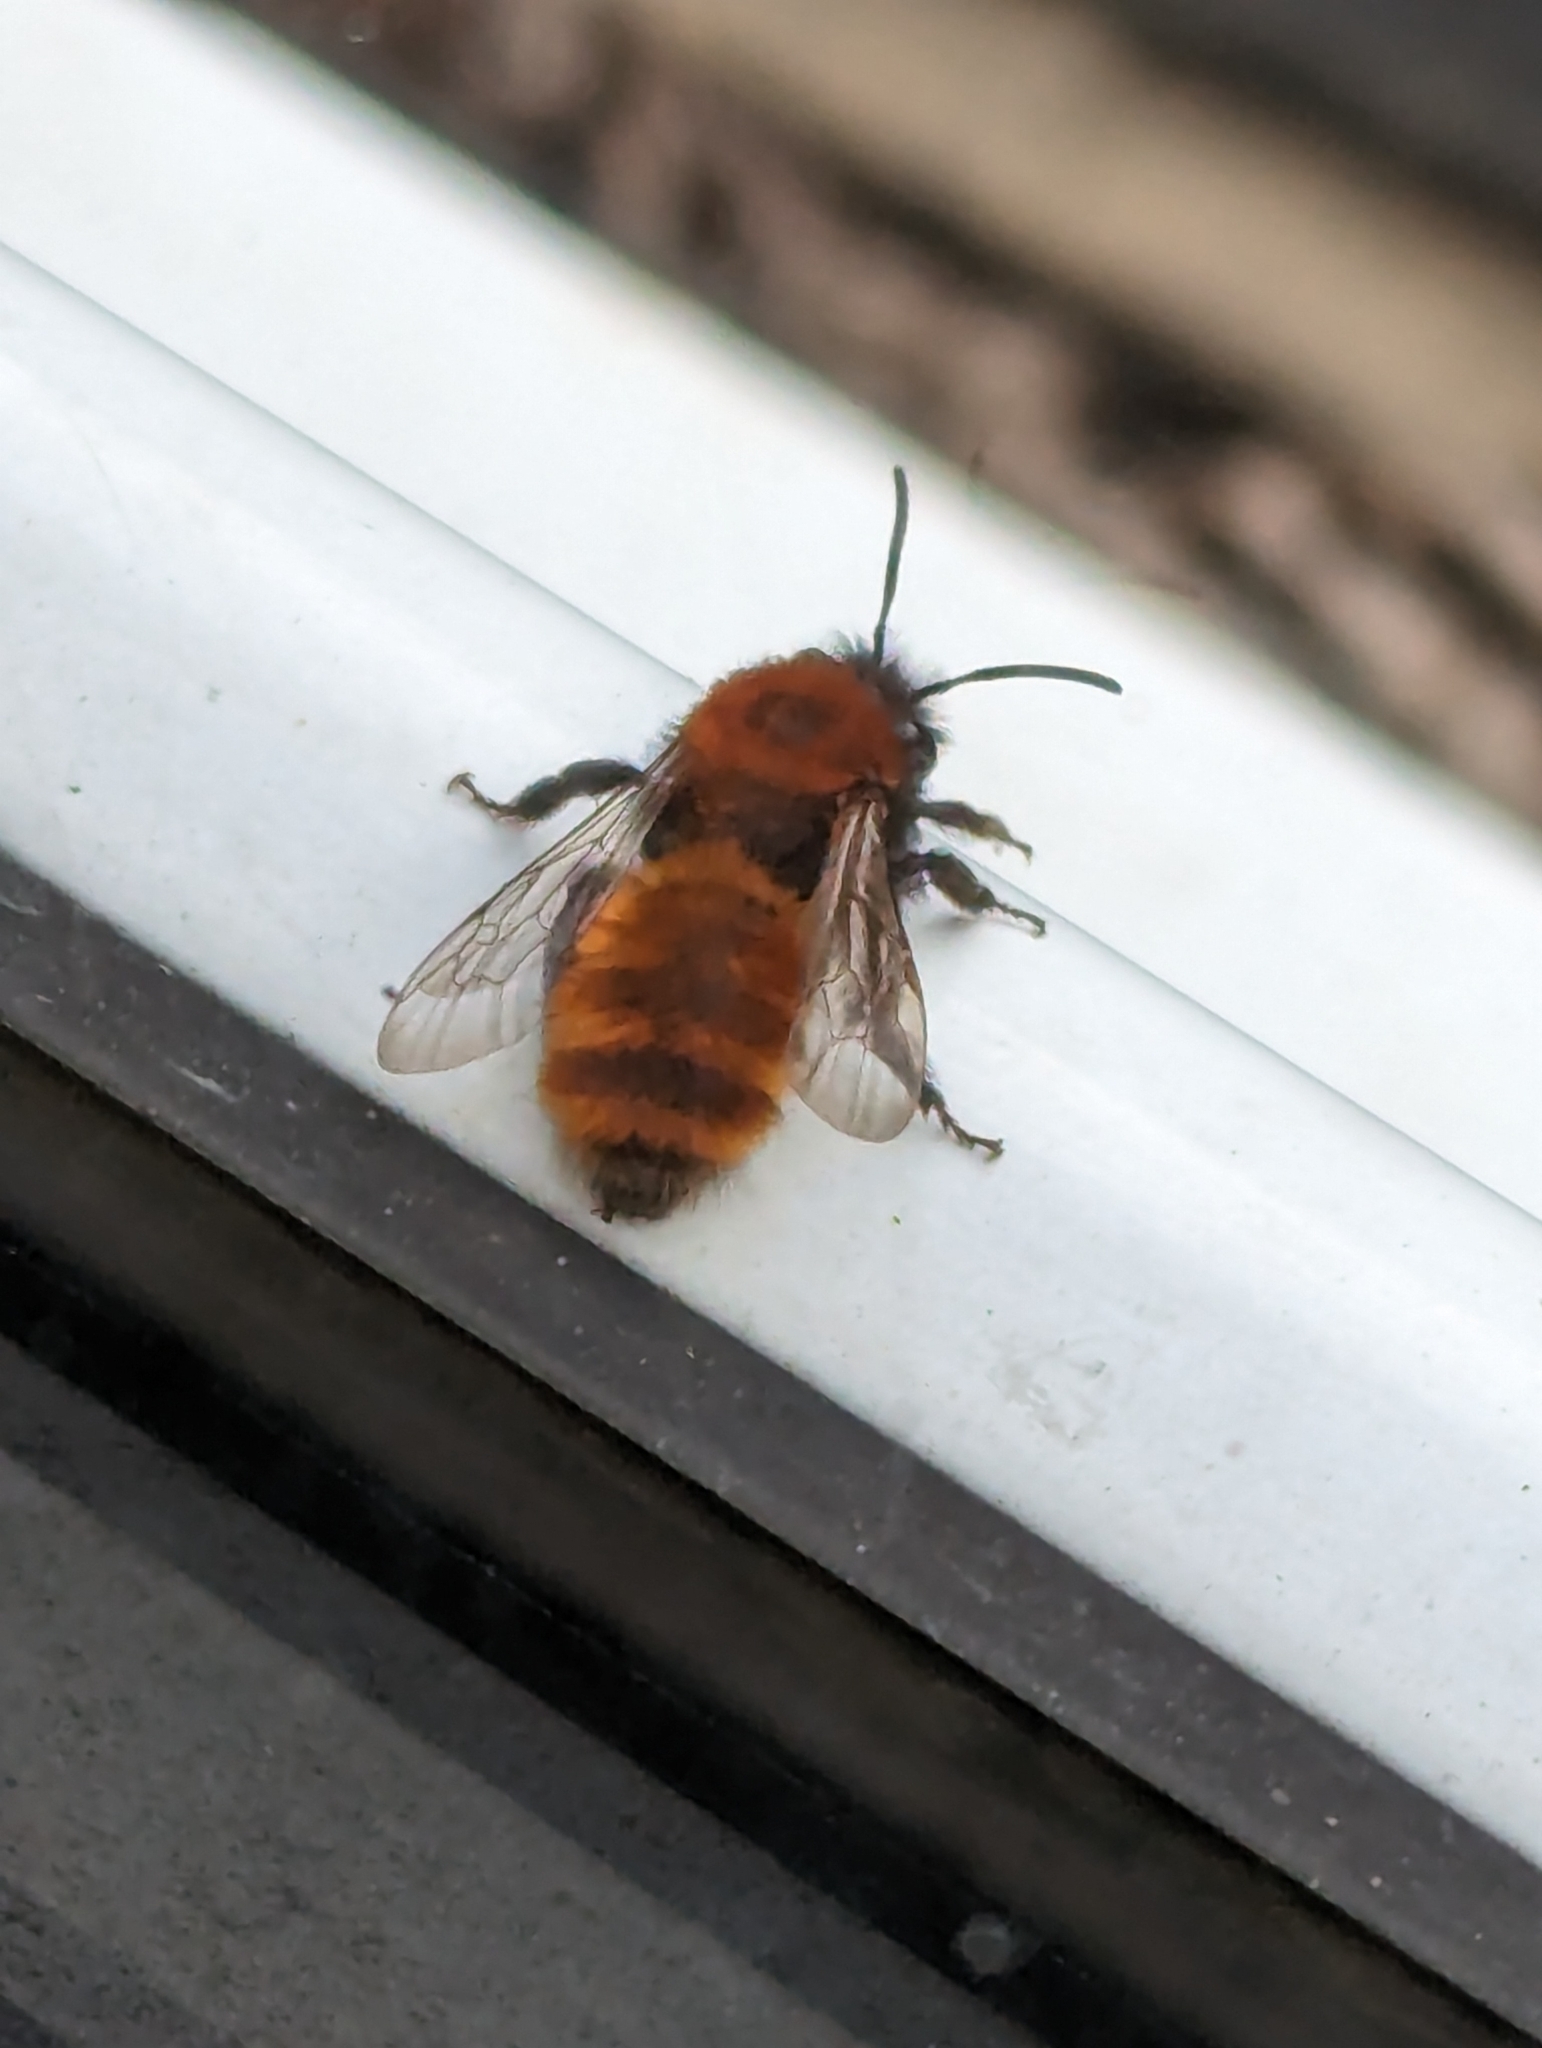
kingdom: Animalia
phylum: Arthropoda
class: Insecta
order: Hymenoptera
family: Andrenidae
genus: Andrena
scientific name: Andrena fulva
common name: Tawny mining bee
